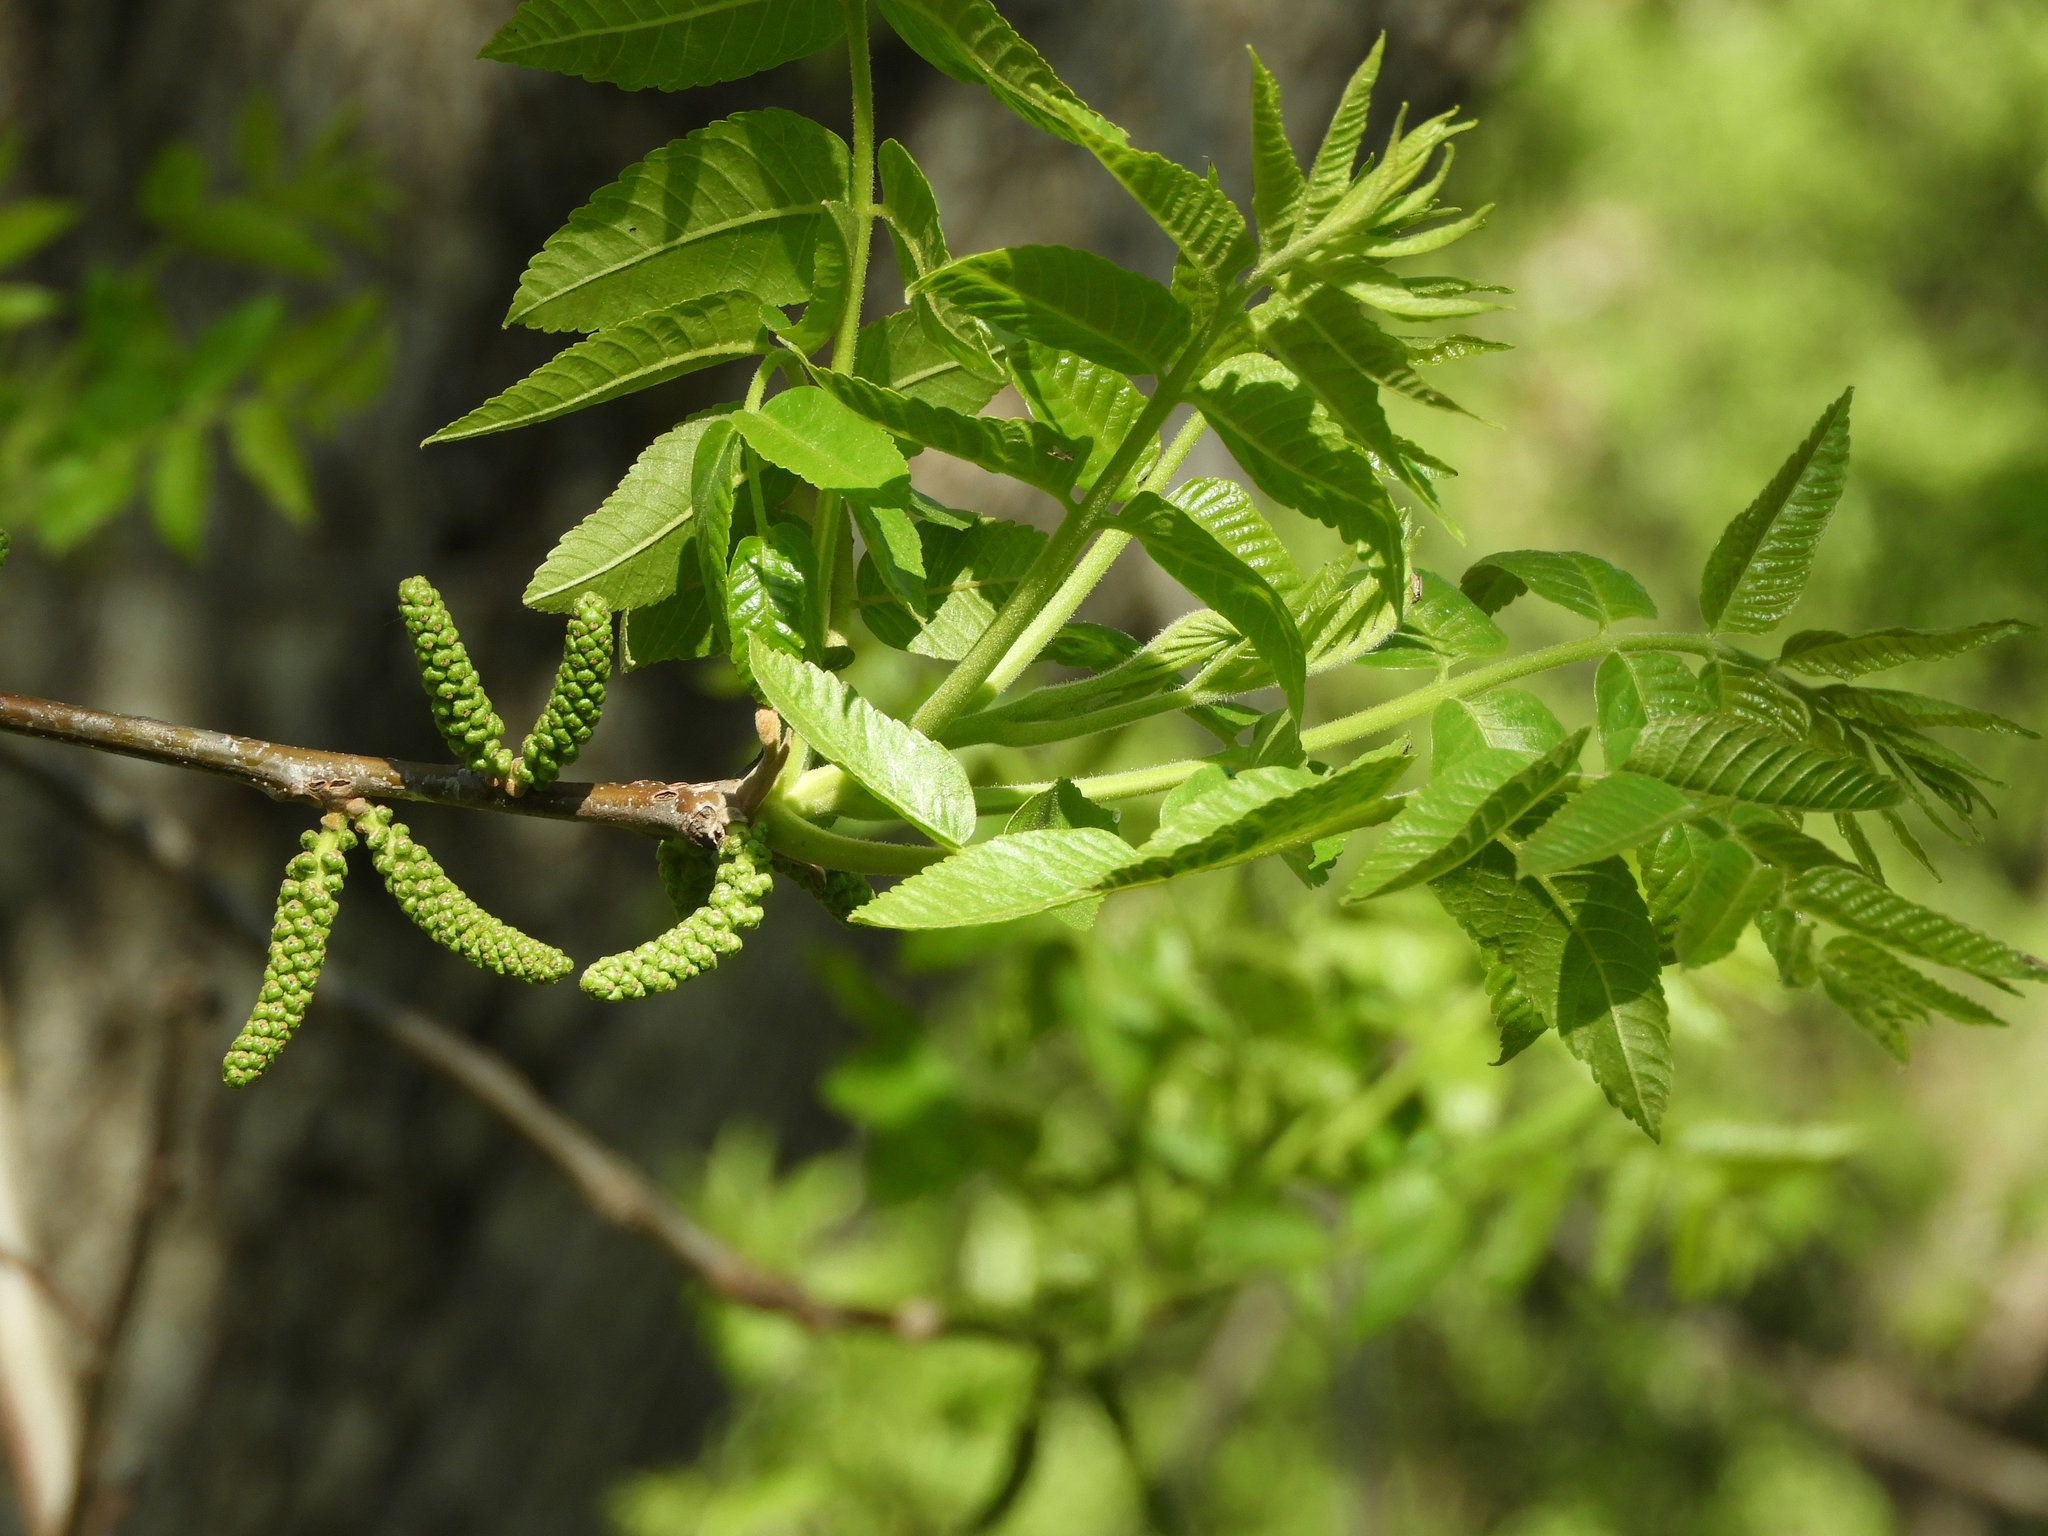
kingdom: Plantae
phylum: Tracheophyta
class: Magnoliopsida
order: Fagales
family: Juglandaceae
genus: Juglans
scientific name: Juglans hindsii
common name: Northern california black walnut
